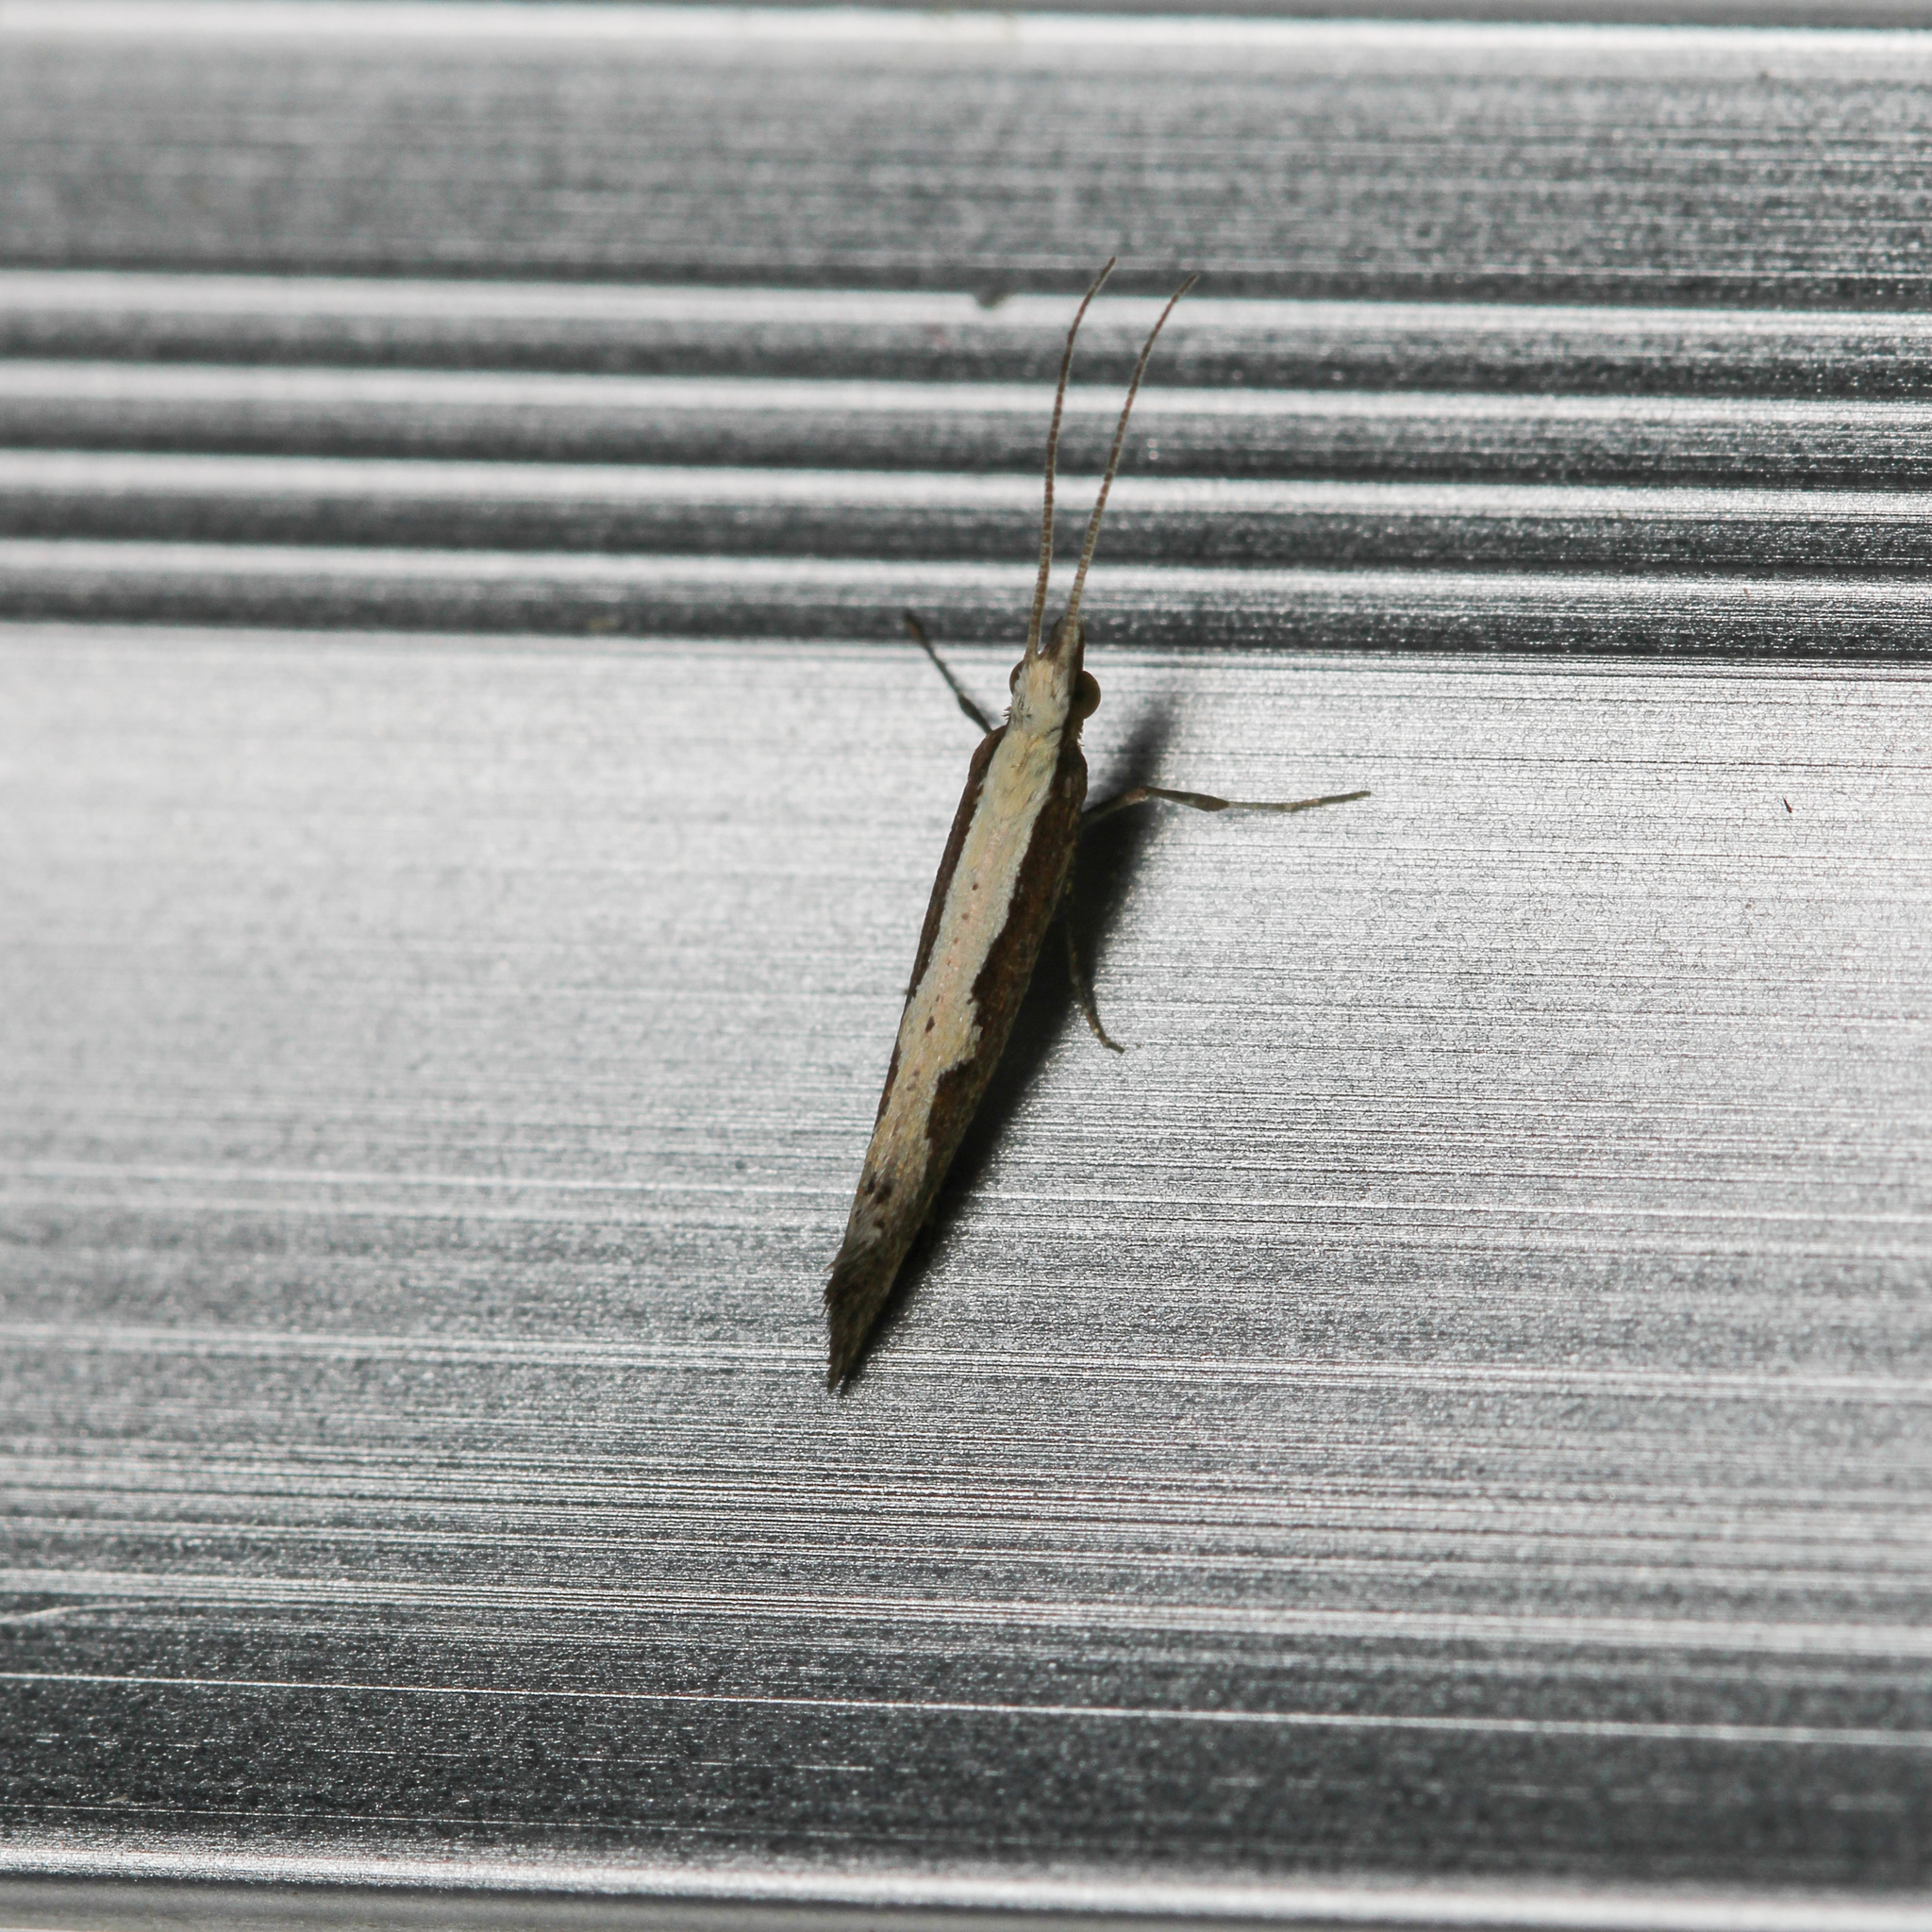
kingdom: Animalia
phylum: Arthropoda
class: Insecta
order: Lepidoptera
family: Plutellidae
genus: Plutella
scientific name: Plutella xylostella
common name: Diamond-back moth
